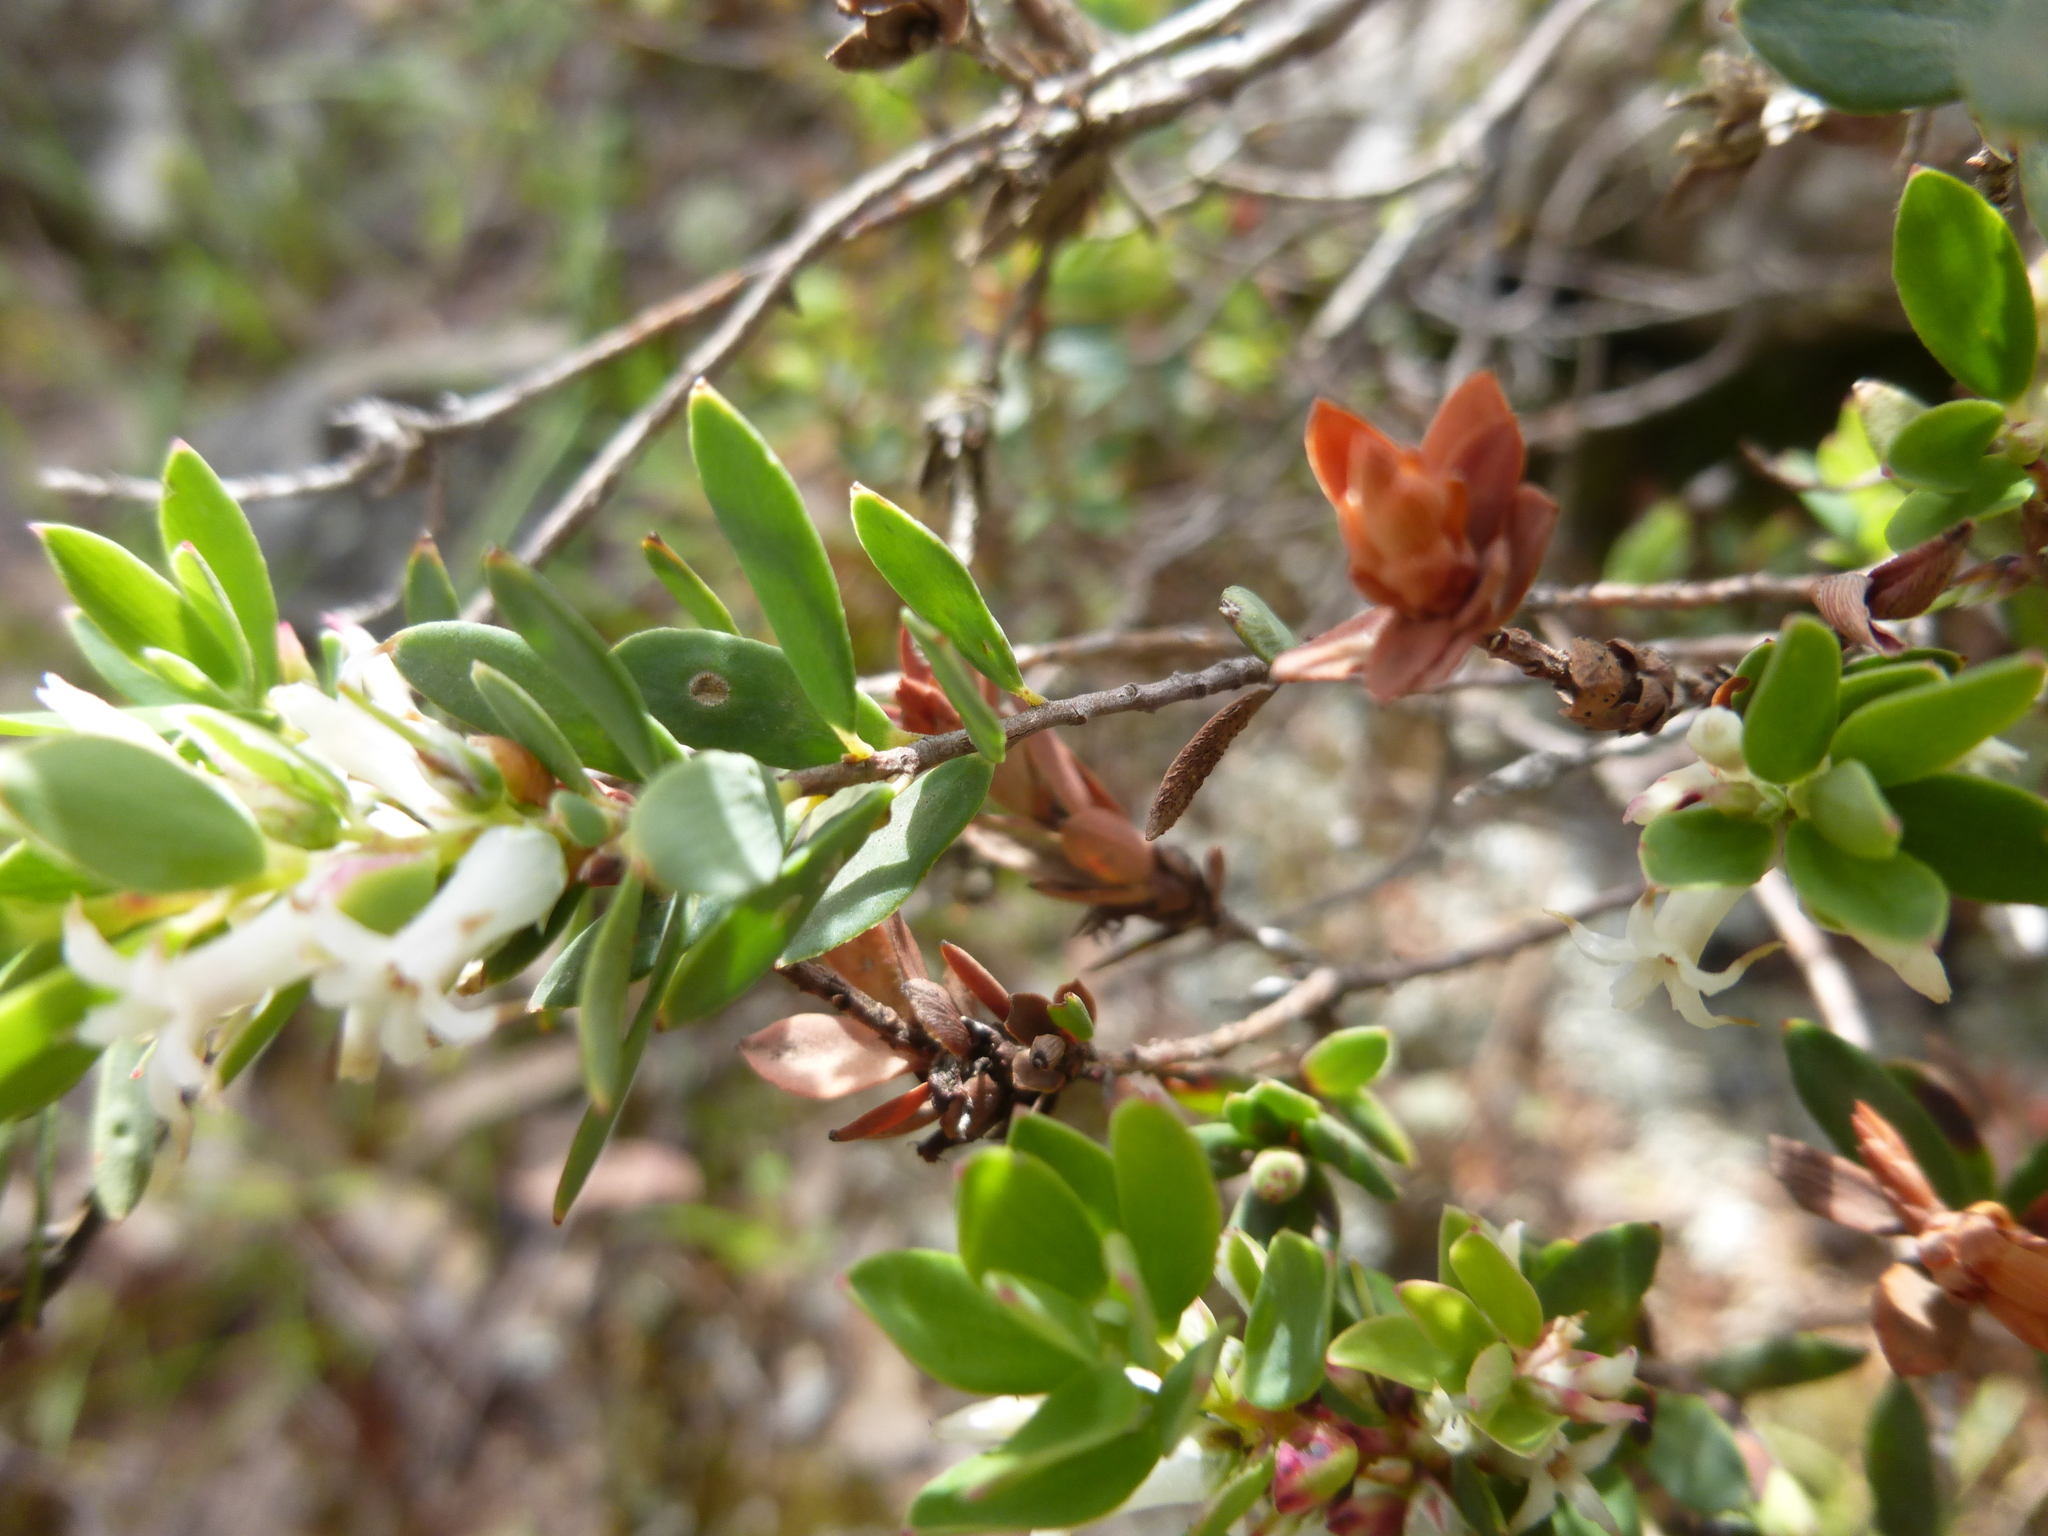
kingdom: Plantae
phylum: Tracheophyta
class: Magnoliopsida
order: Ericales
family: Ericaceae
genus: Brachyloma
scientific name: Brachyloma daphnoides
